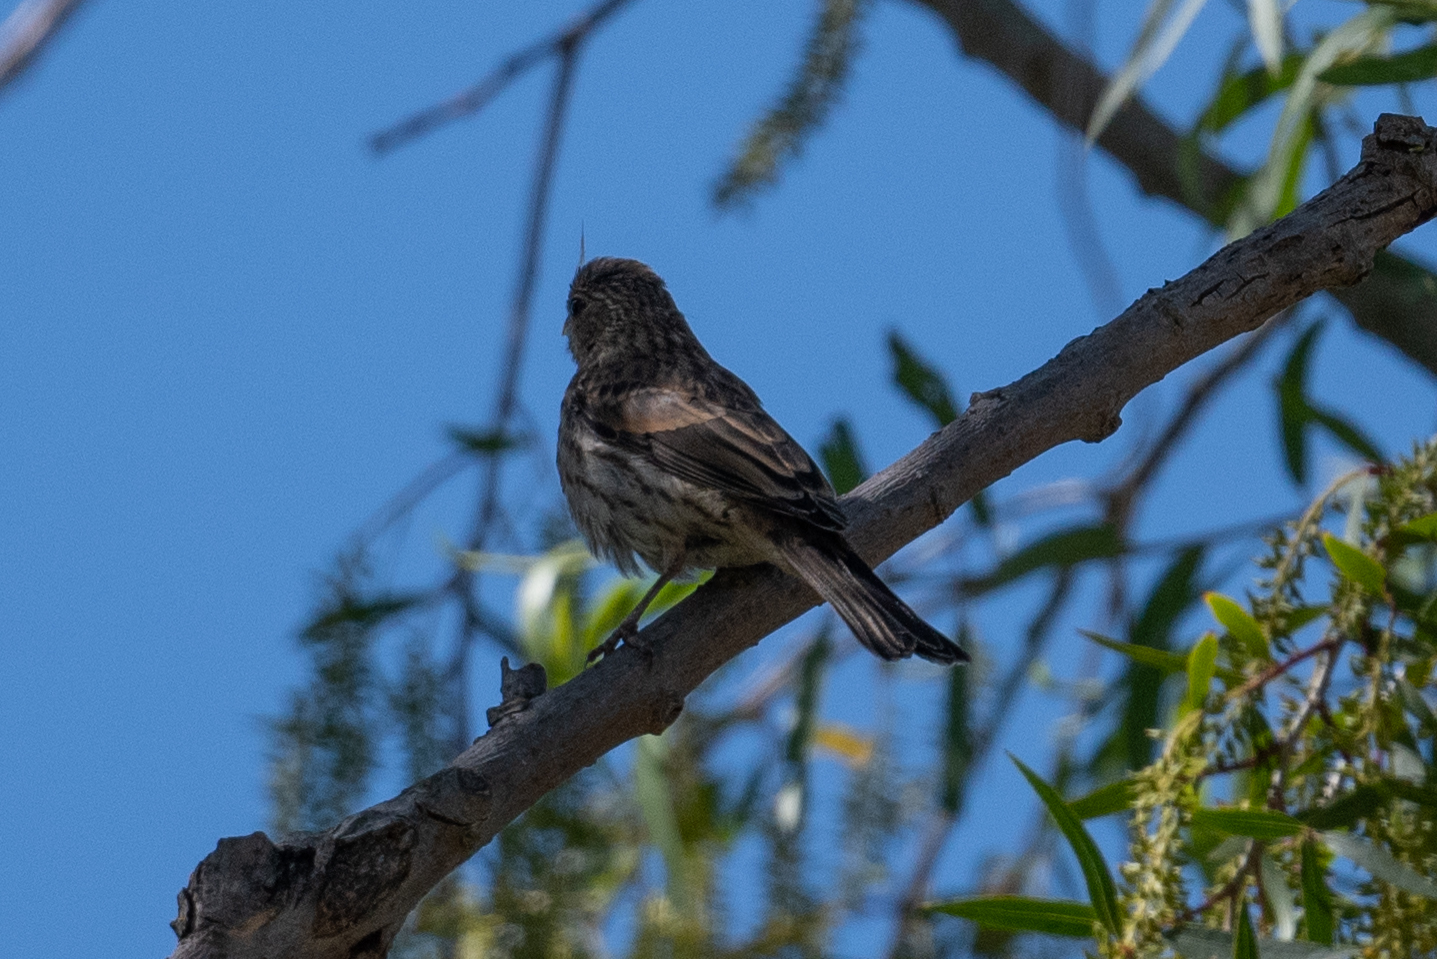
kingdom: Animalia
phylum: Chordata
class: Aves
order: Passeriformes
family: Fringillidae
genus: Haemorhous
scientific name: Haemorhous mexicanus
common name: House finch
